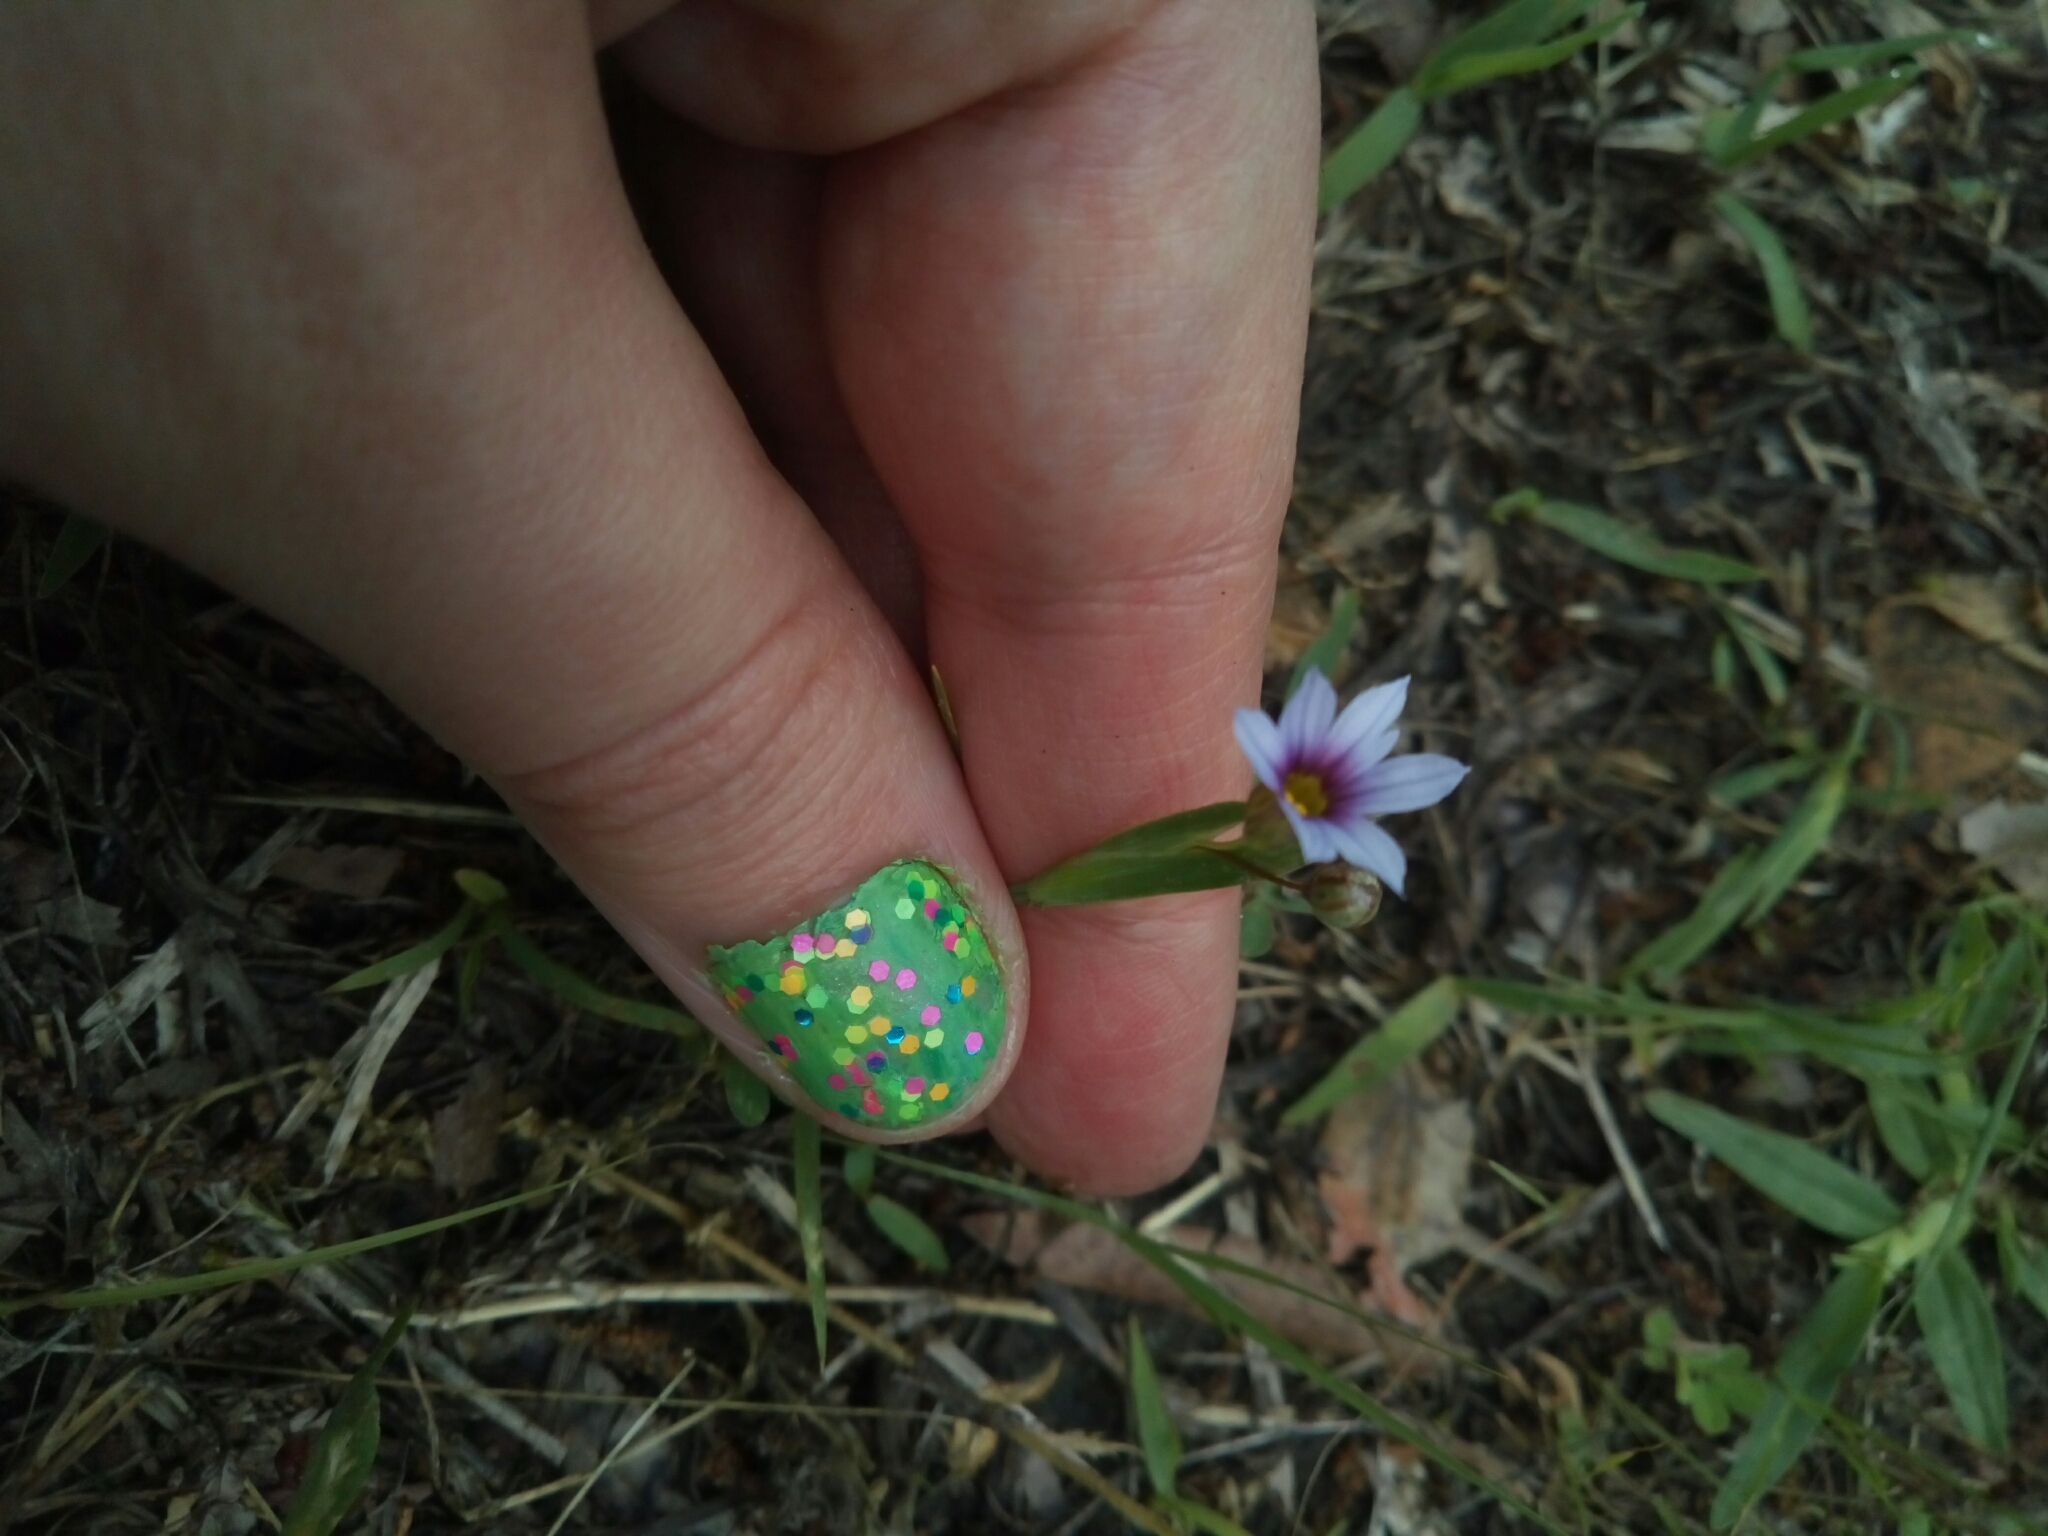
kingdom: Plantae
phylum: Tracheophyta
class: Liliopsida
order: Asparagales
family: Iridaceae
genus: Sisyrinchium
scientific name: Sisyrinchium micranthum
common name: Bermuda pigroot
